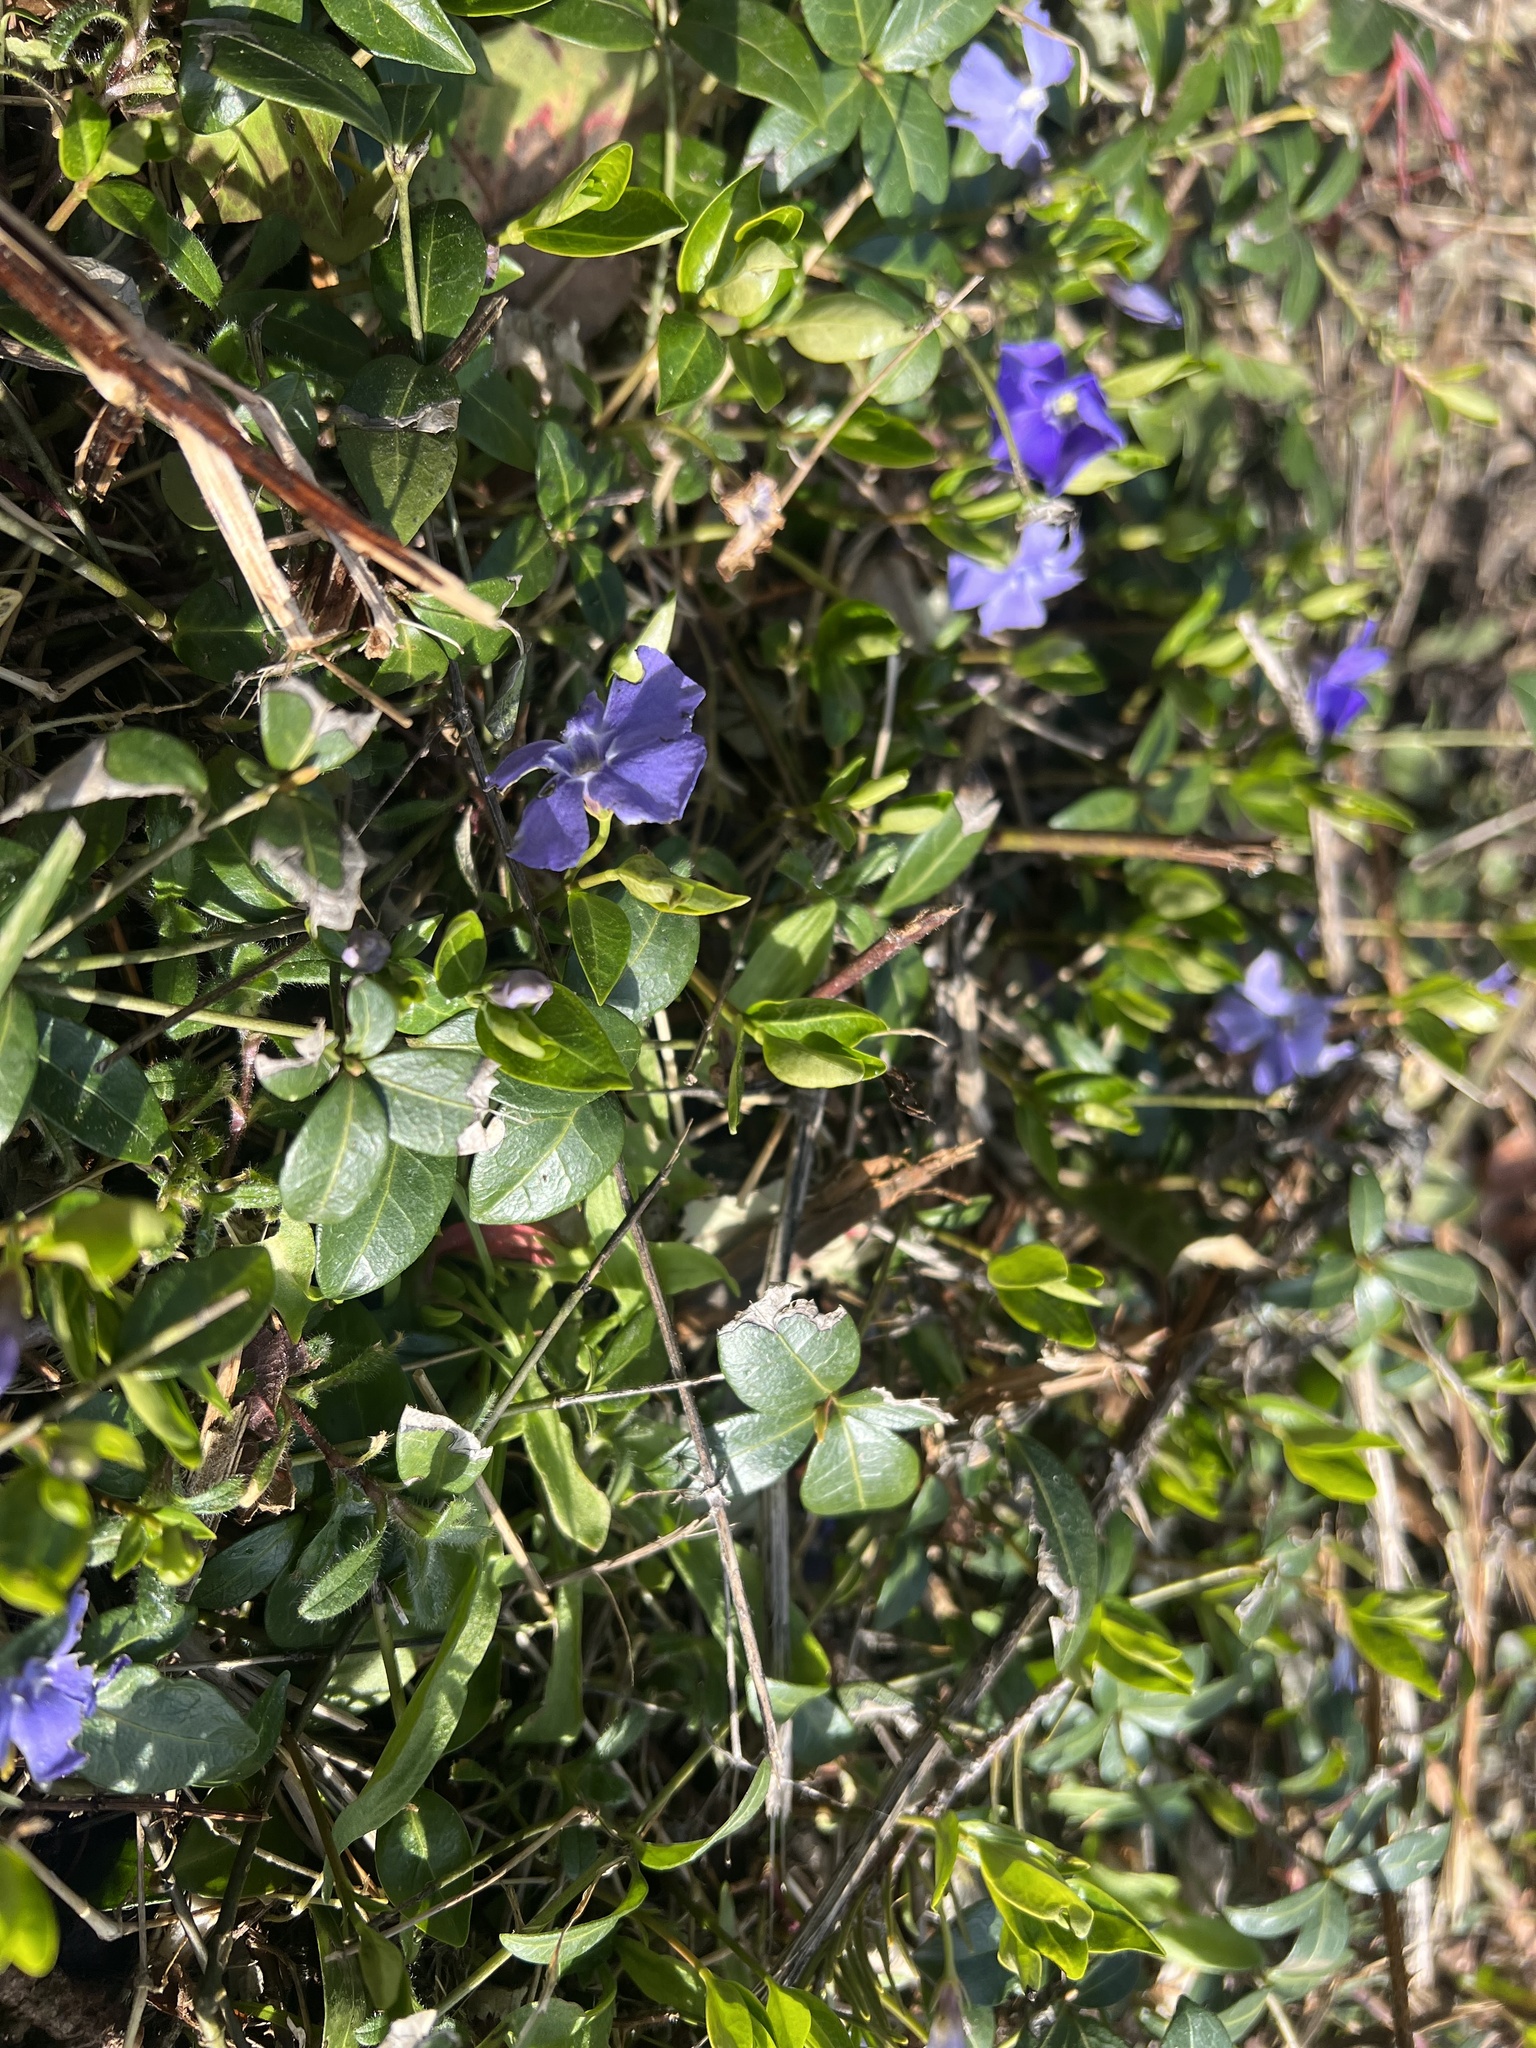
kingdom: Plantae
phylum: Tracheophyta
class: Magnoliopsida
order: Gentianales
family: Apocynaceae
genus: Vinca
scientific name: Vinca minor
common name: Lesser periwinkle
